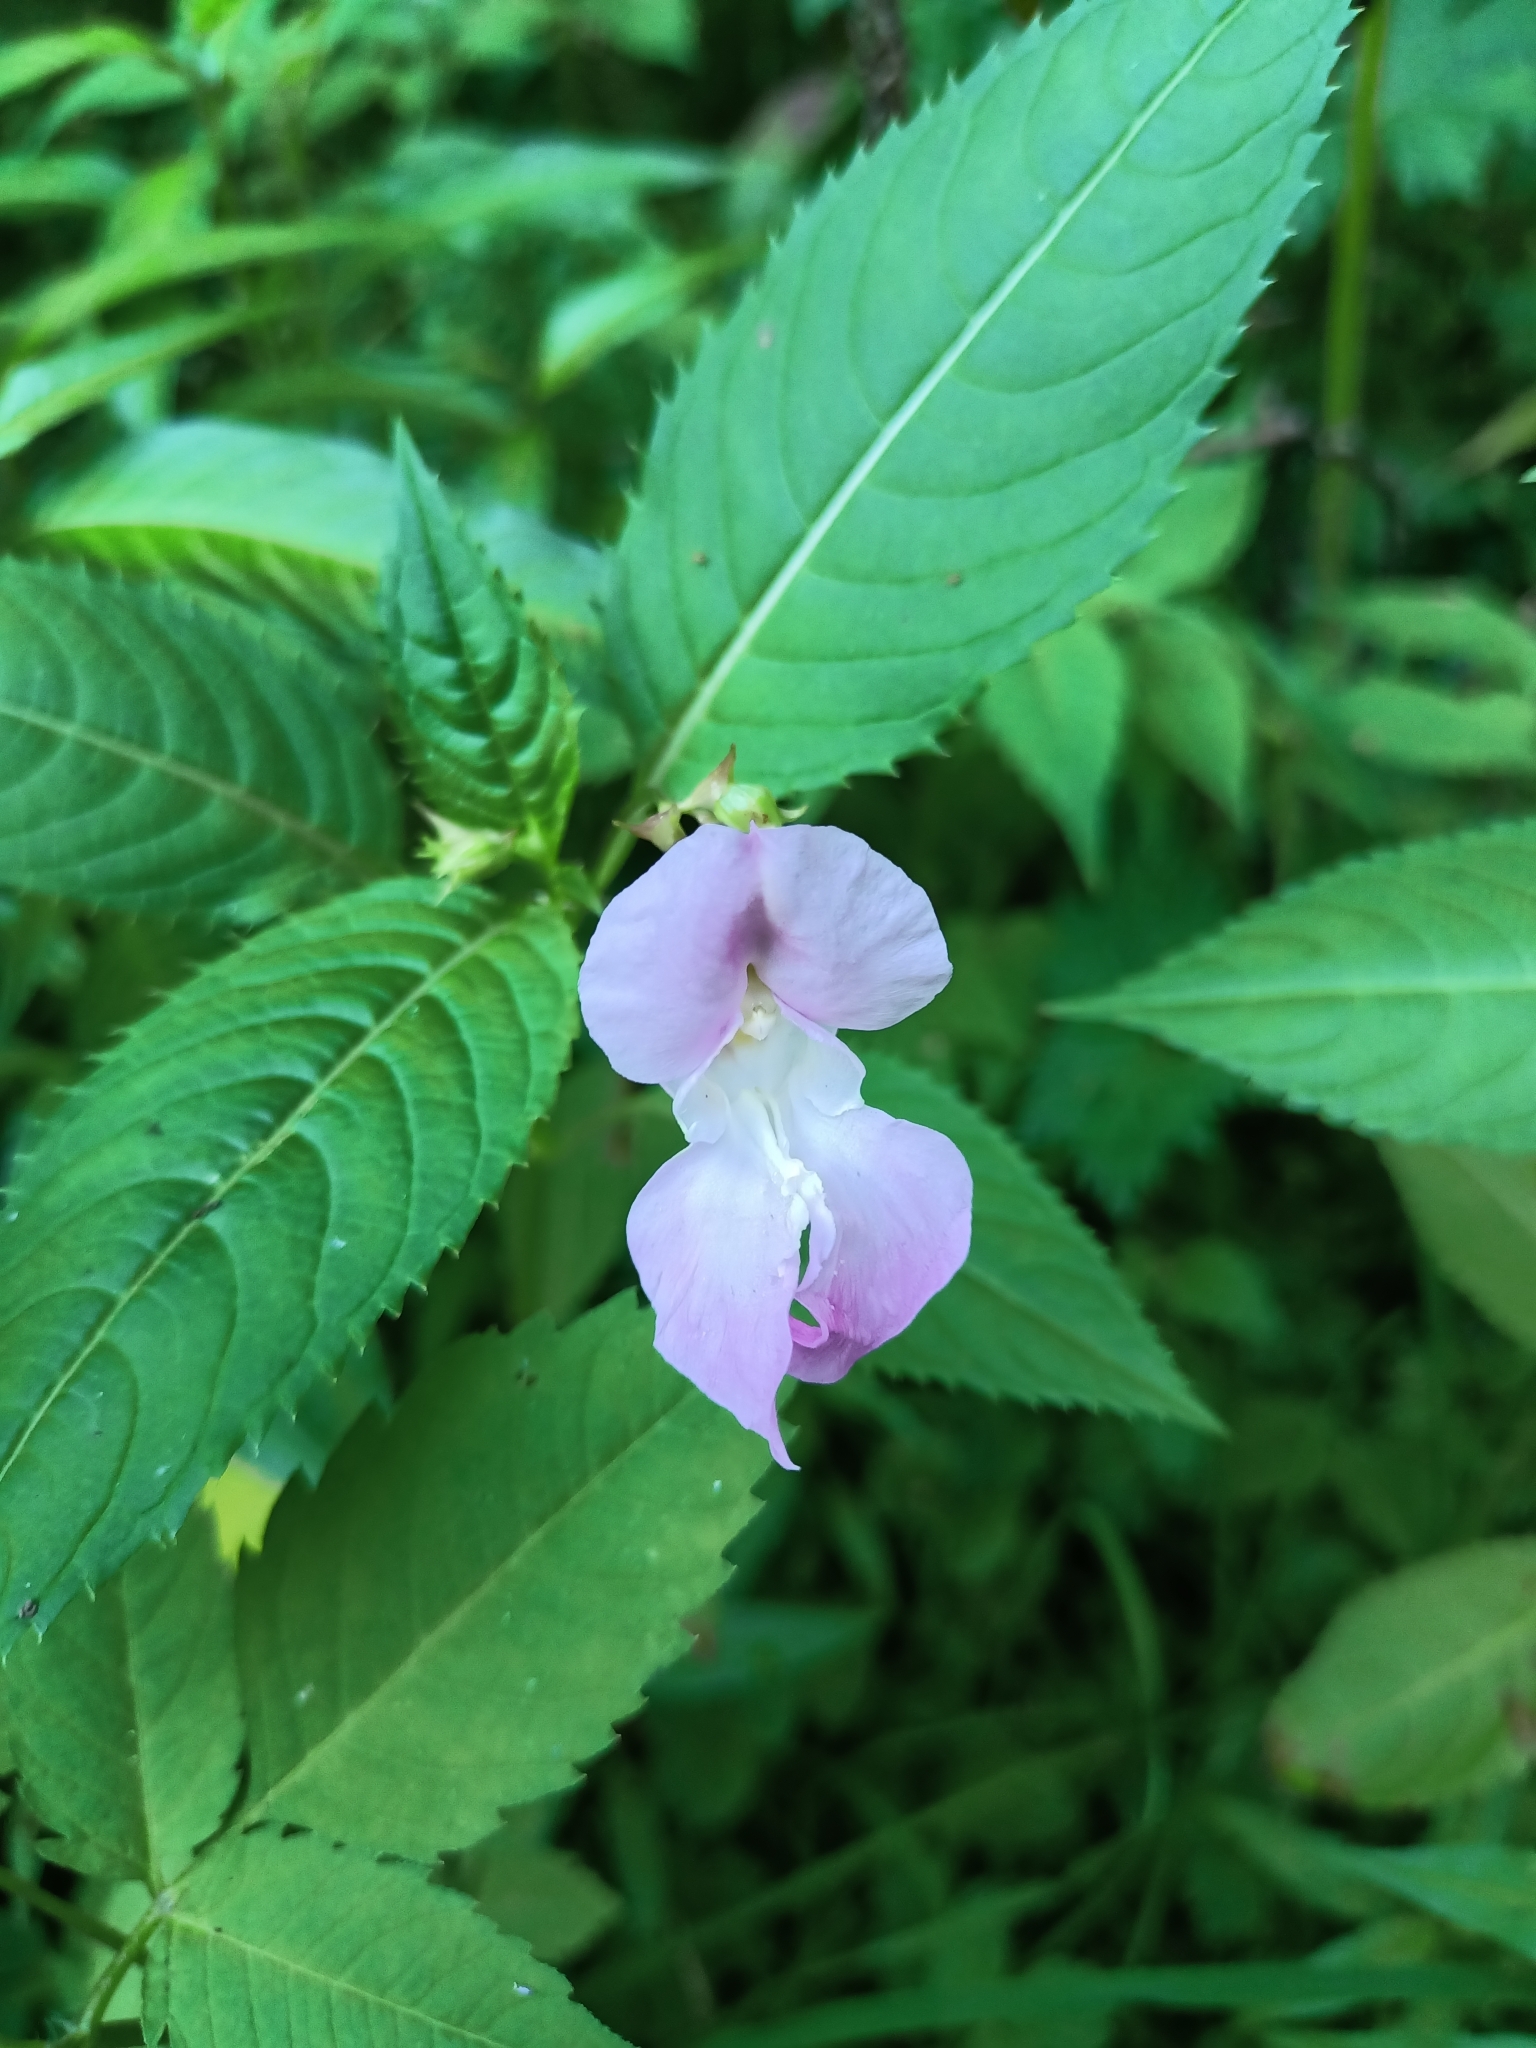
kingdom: Plantae
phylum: Tracheophyta
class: Magnoliopsida
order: Ericales
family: Balsaminaceae
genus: Impatiens
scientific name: Impatiens glandulifera
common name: Himalayan balsam
